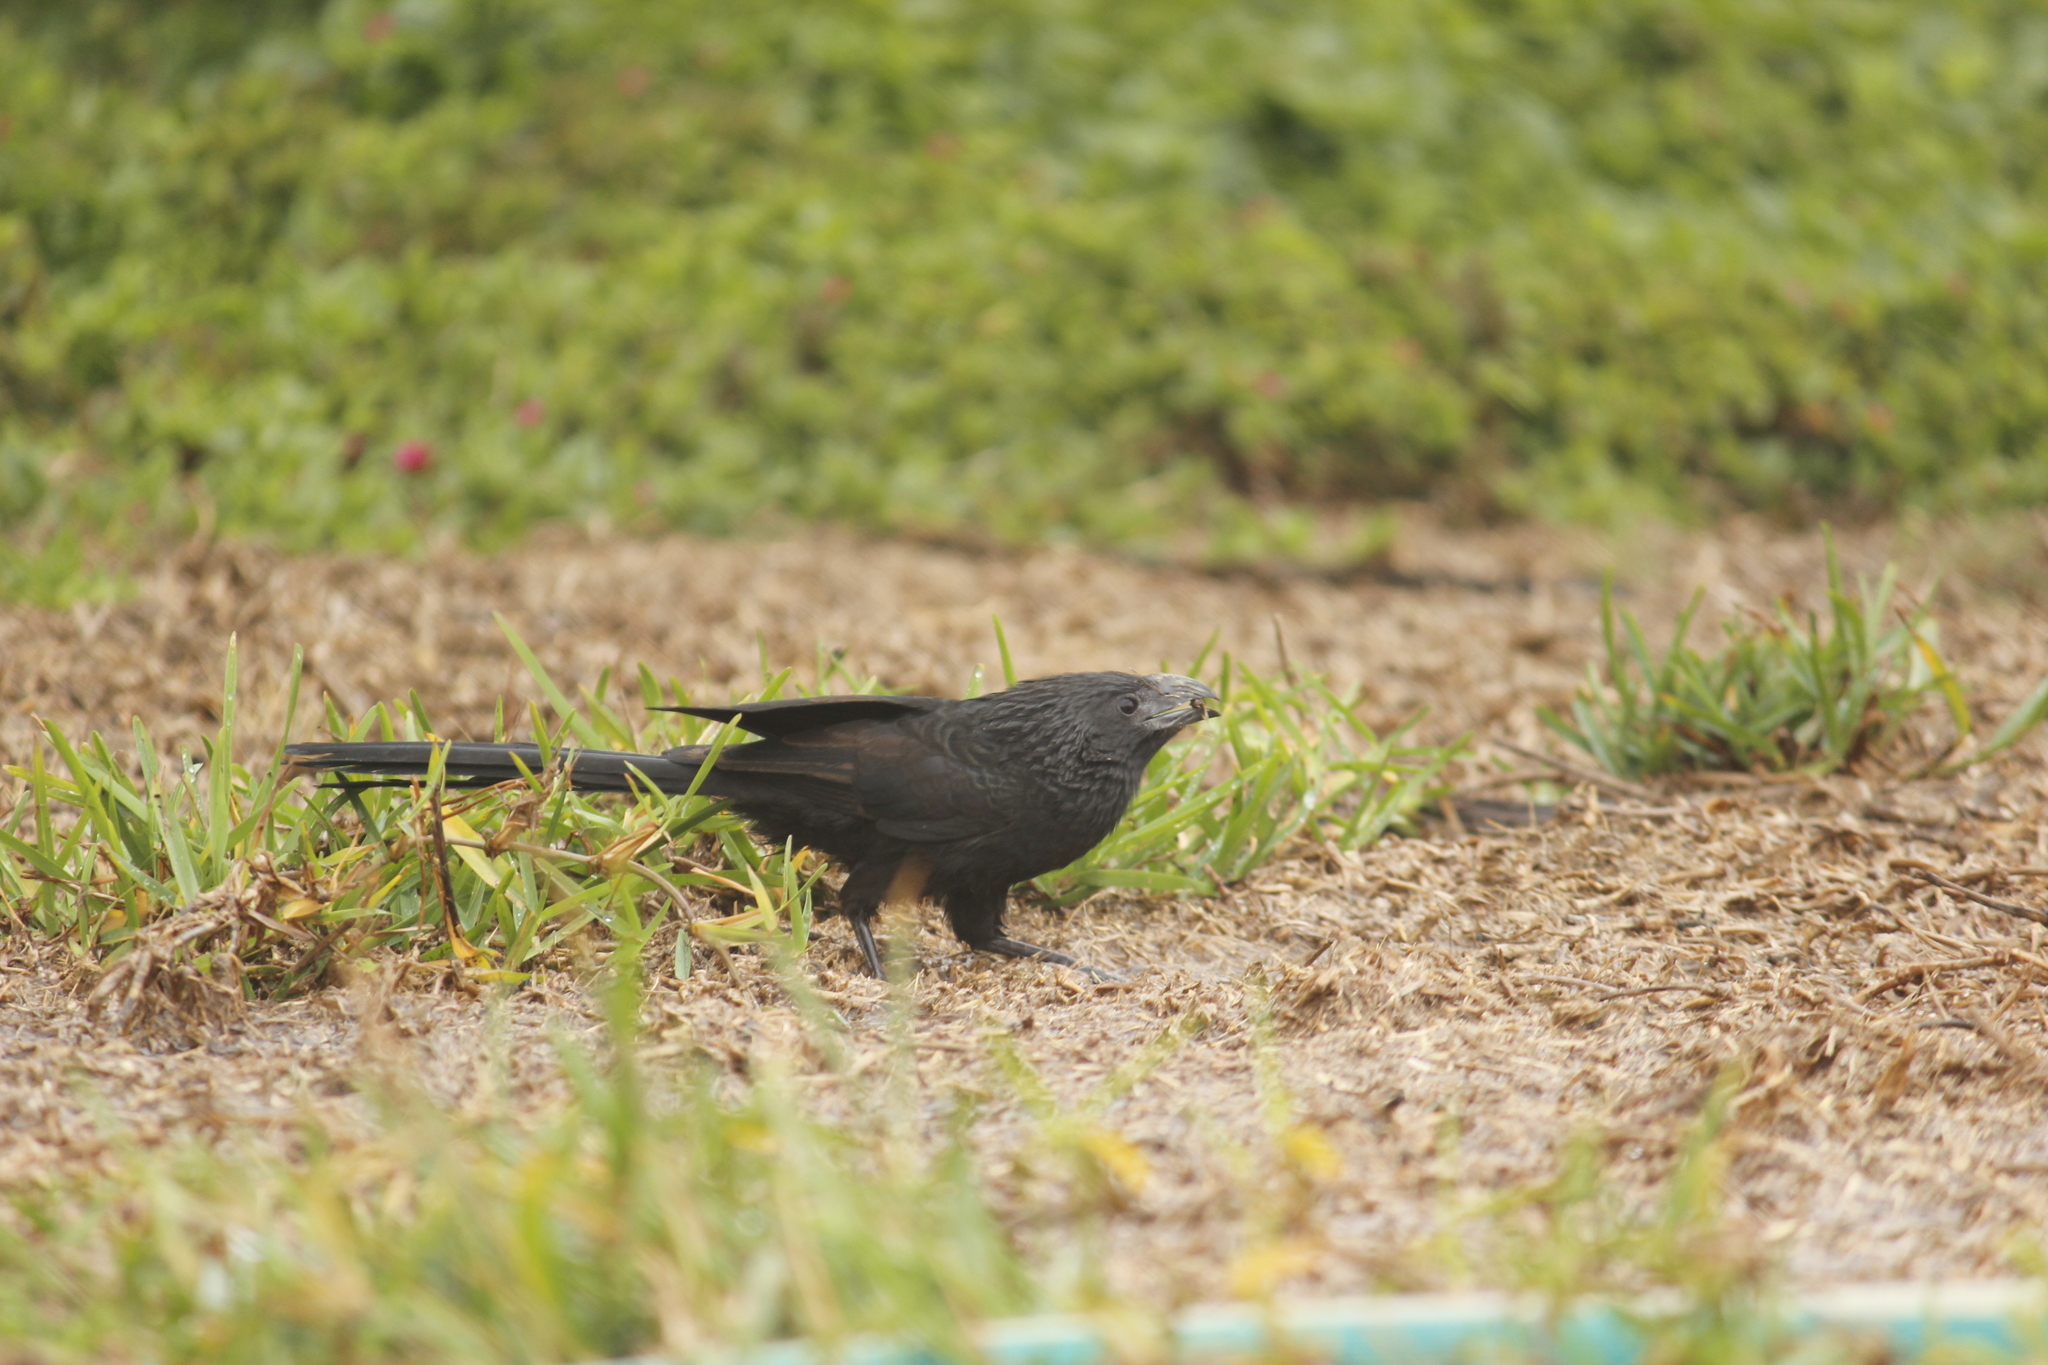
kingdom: Animalia
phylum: Chordata
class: Aves
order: Cuculiformes
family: Cuculidae
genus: Crotophaga
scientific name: Crotophaga sulcirostris
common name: Groove-billed ani
